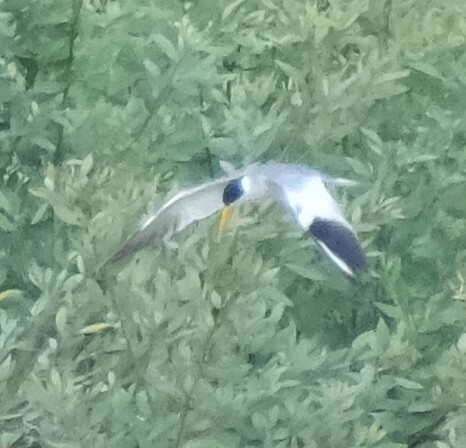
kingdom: Animalia
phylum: Chordata
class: Aves
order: Charadriiformes
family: Laridae
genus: Phaetusa
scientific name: Phaetusa simplex
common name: Large-billed tern
